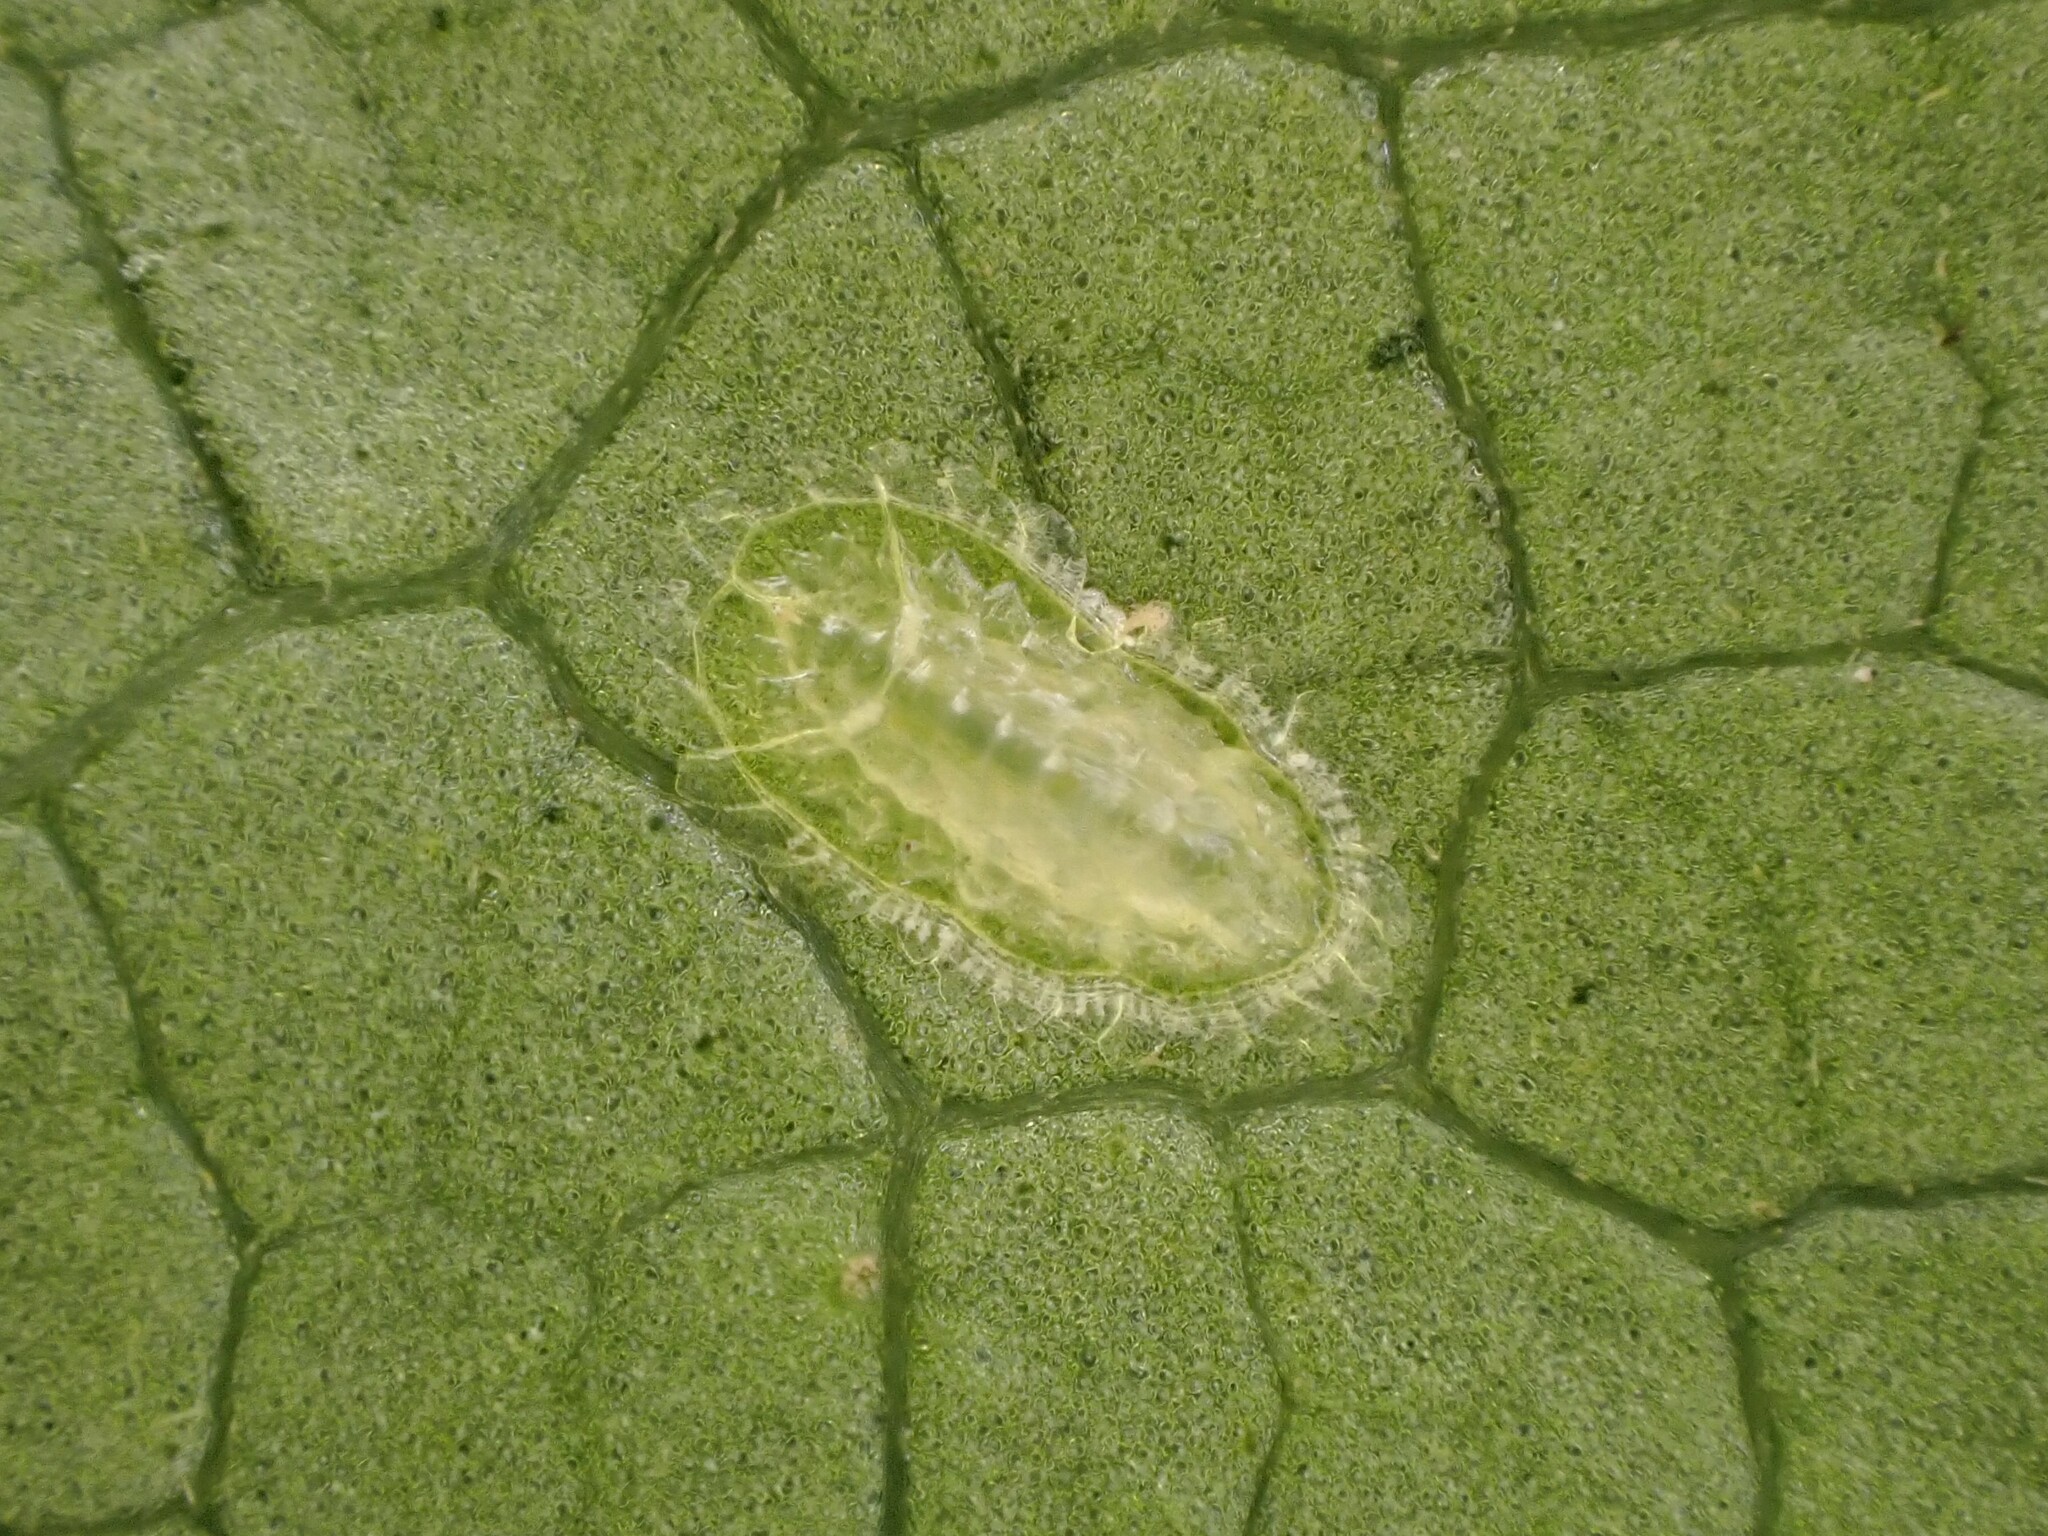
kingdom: Animalia
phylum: Arthropoda
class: Insecta
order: Hemiptera
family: Triozidae
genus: Powellia
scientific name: Powellia
